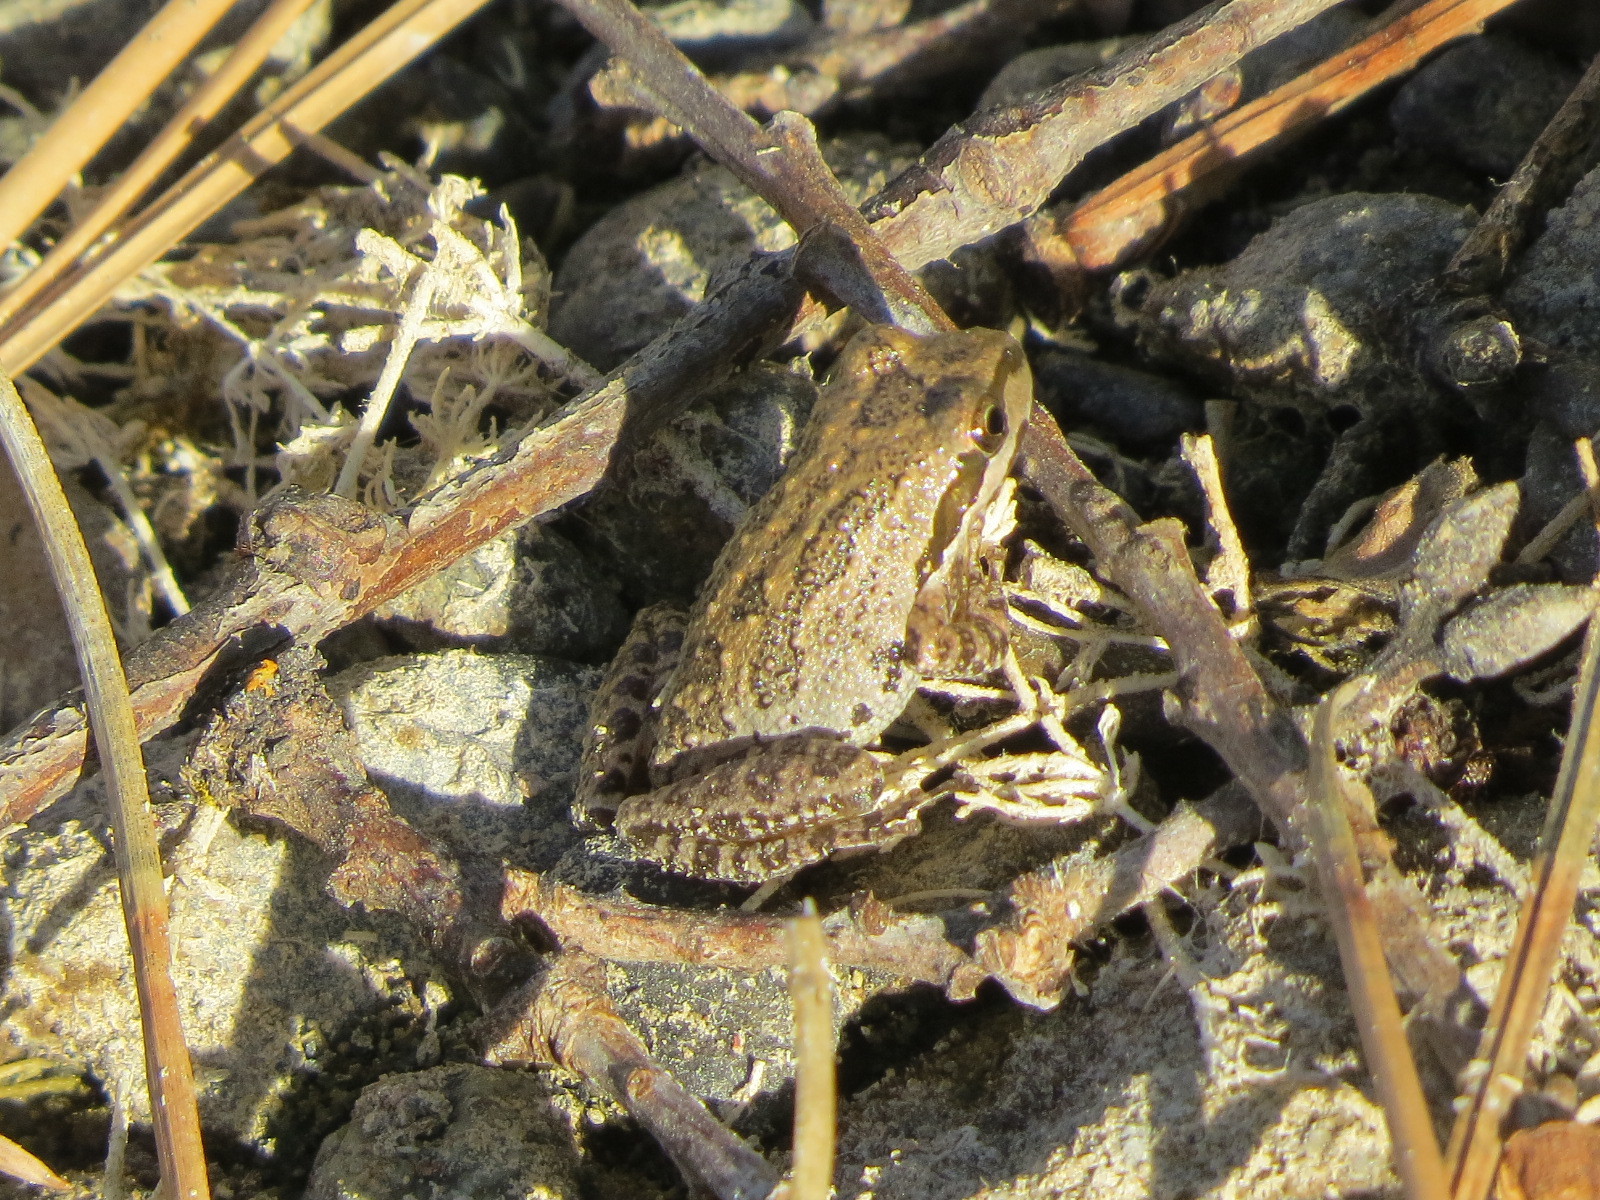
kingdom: Animalia
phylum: Chordata
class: Amphibia
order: Anura
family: Hylidae
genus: Pseudacris
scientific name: Pseudacris regilla
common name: Pacific chorus frog
